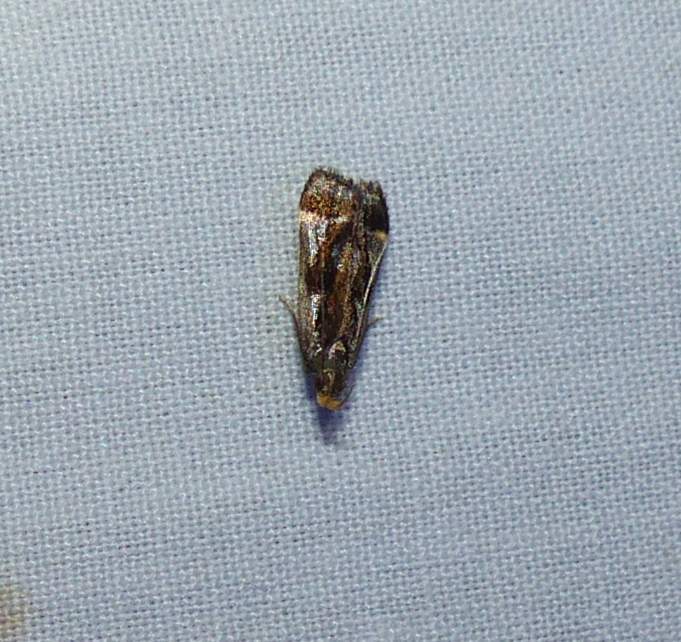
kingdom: Animalia
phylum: Arthropoda
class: Insecta
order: Lepidoptera
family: Gelechiidae
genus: Dichomeris
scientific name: Dichomeris ochripalpella
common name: Shining dichomeris moth
